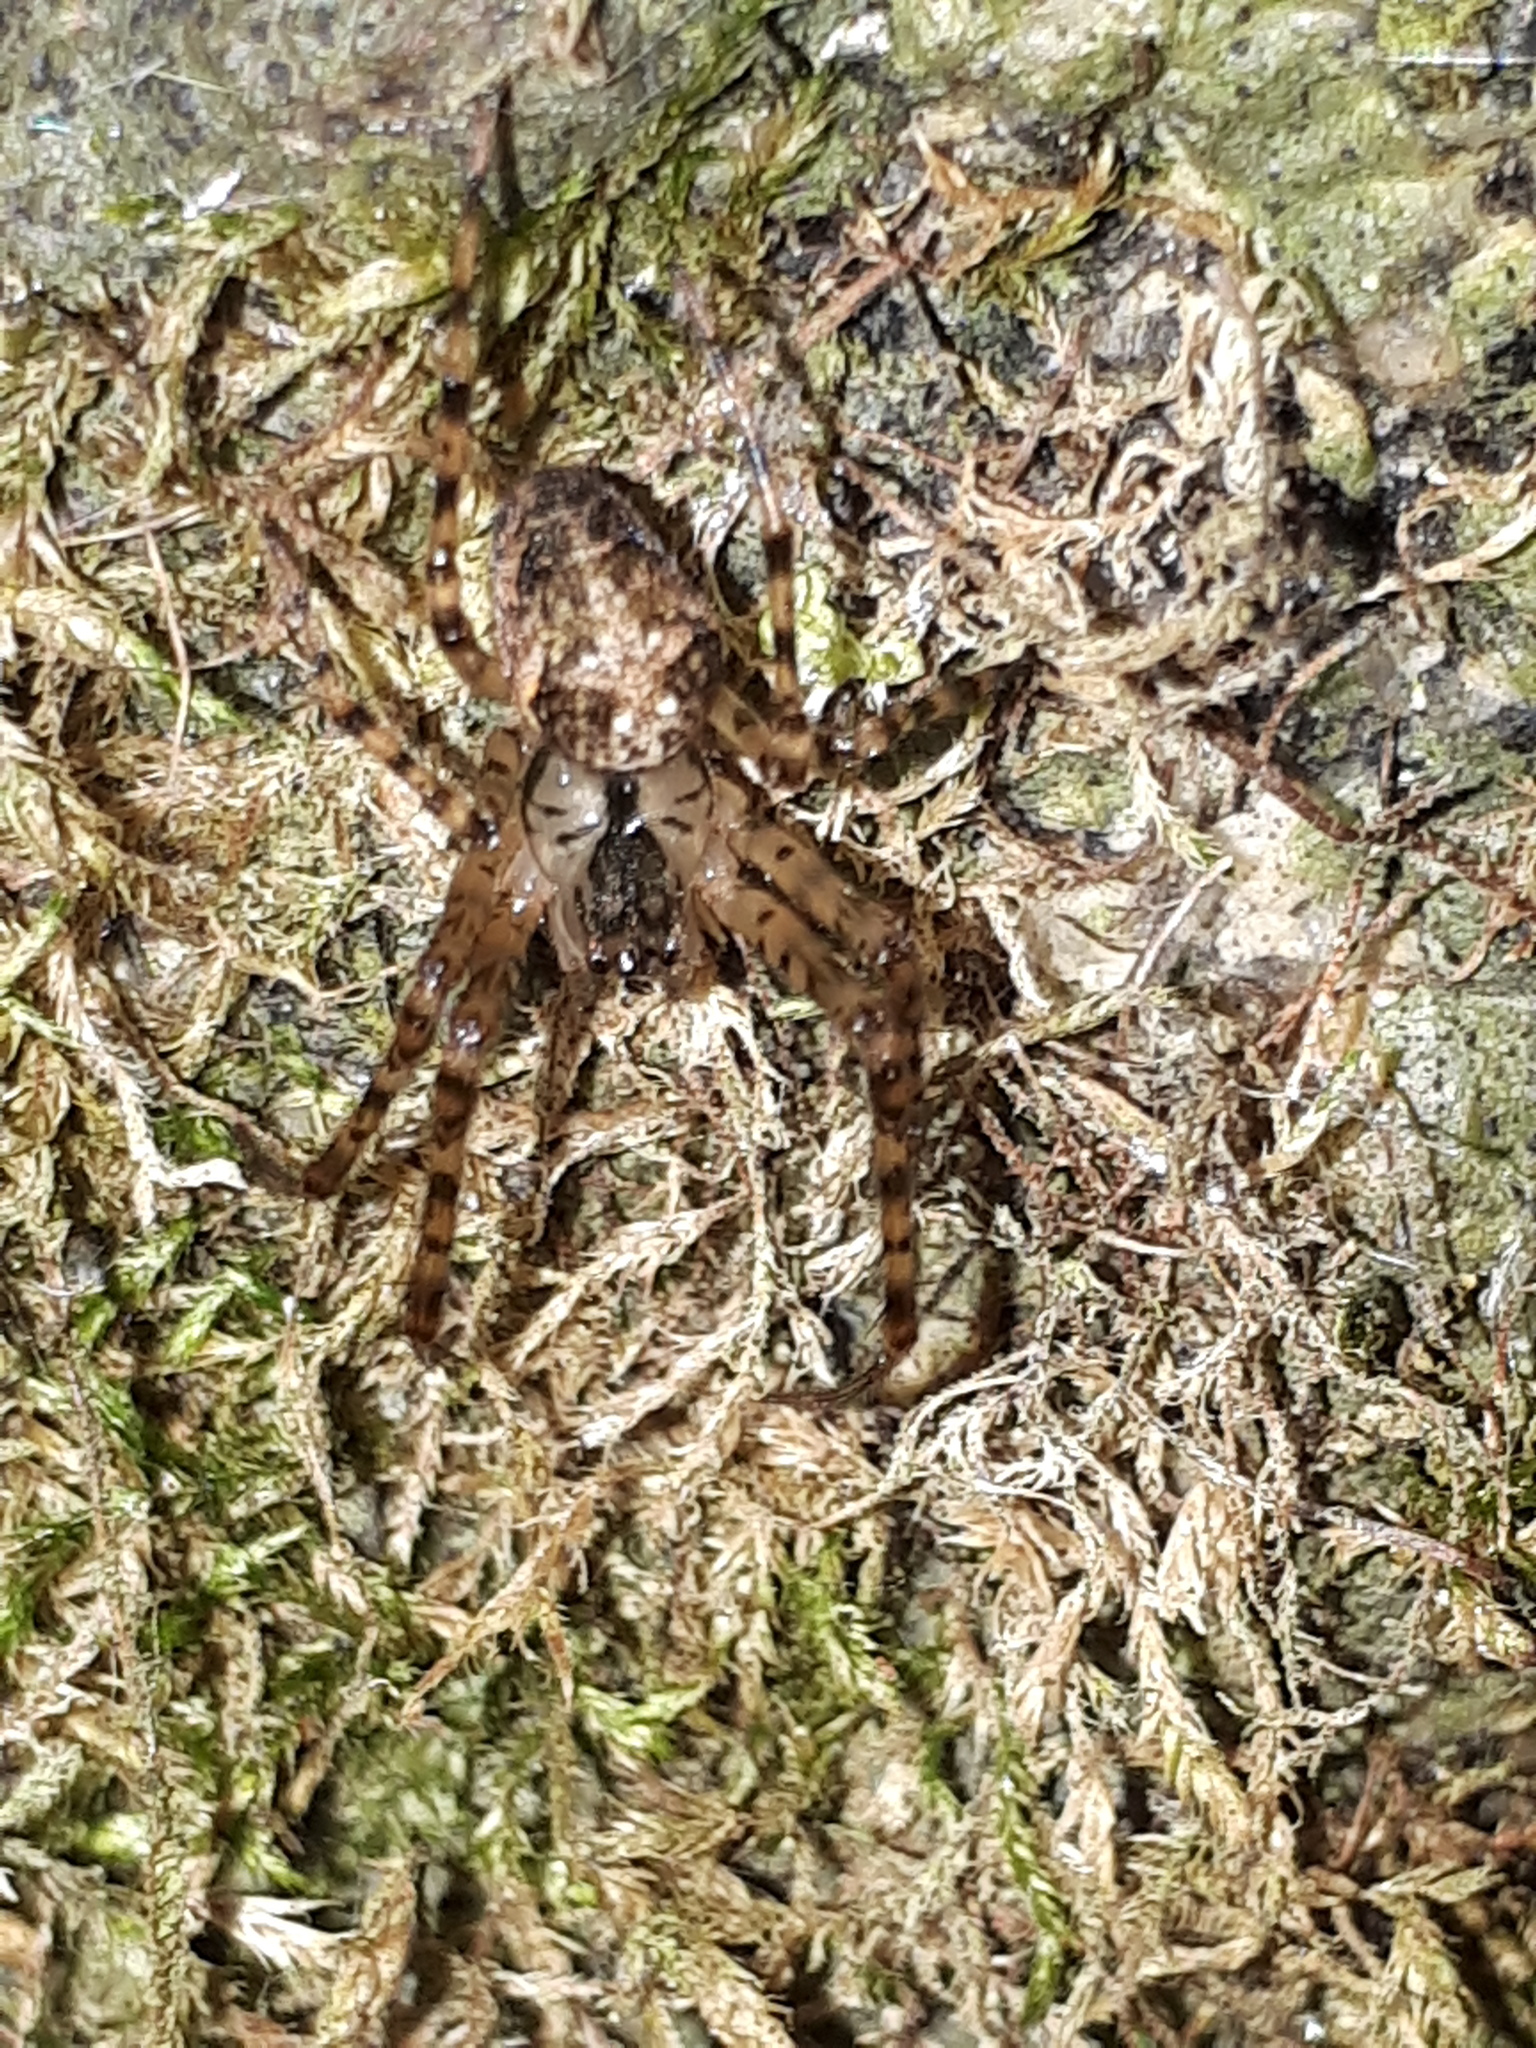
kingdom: Animalia
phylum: Arthropoda
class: Arachnida
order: Araneae
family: Tetragnathidae
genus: Metellina
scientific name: Metellina merianae
